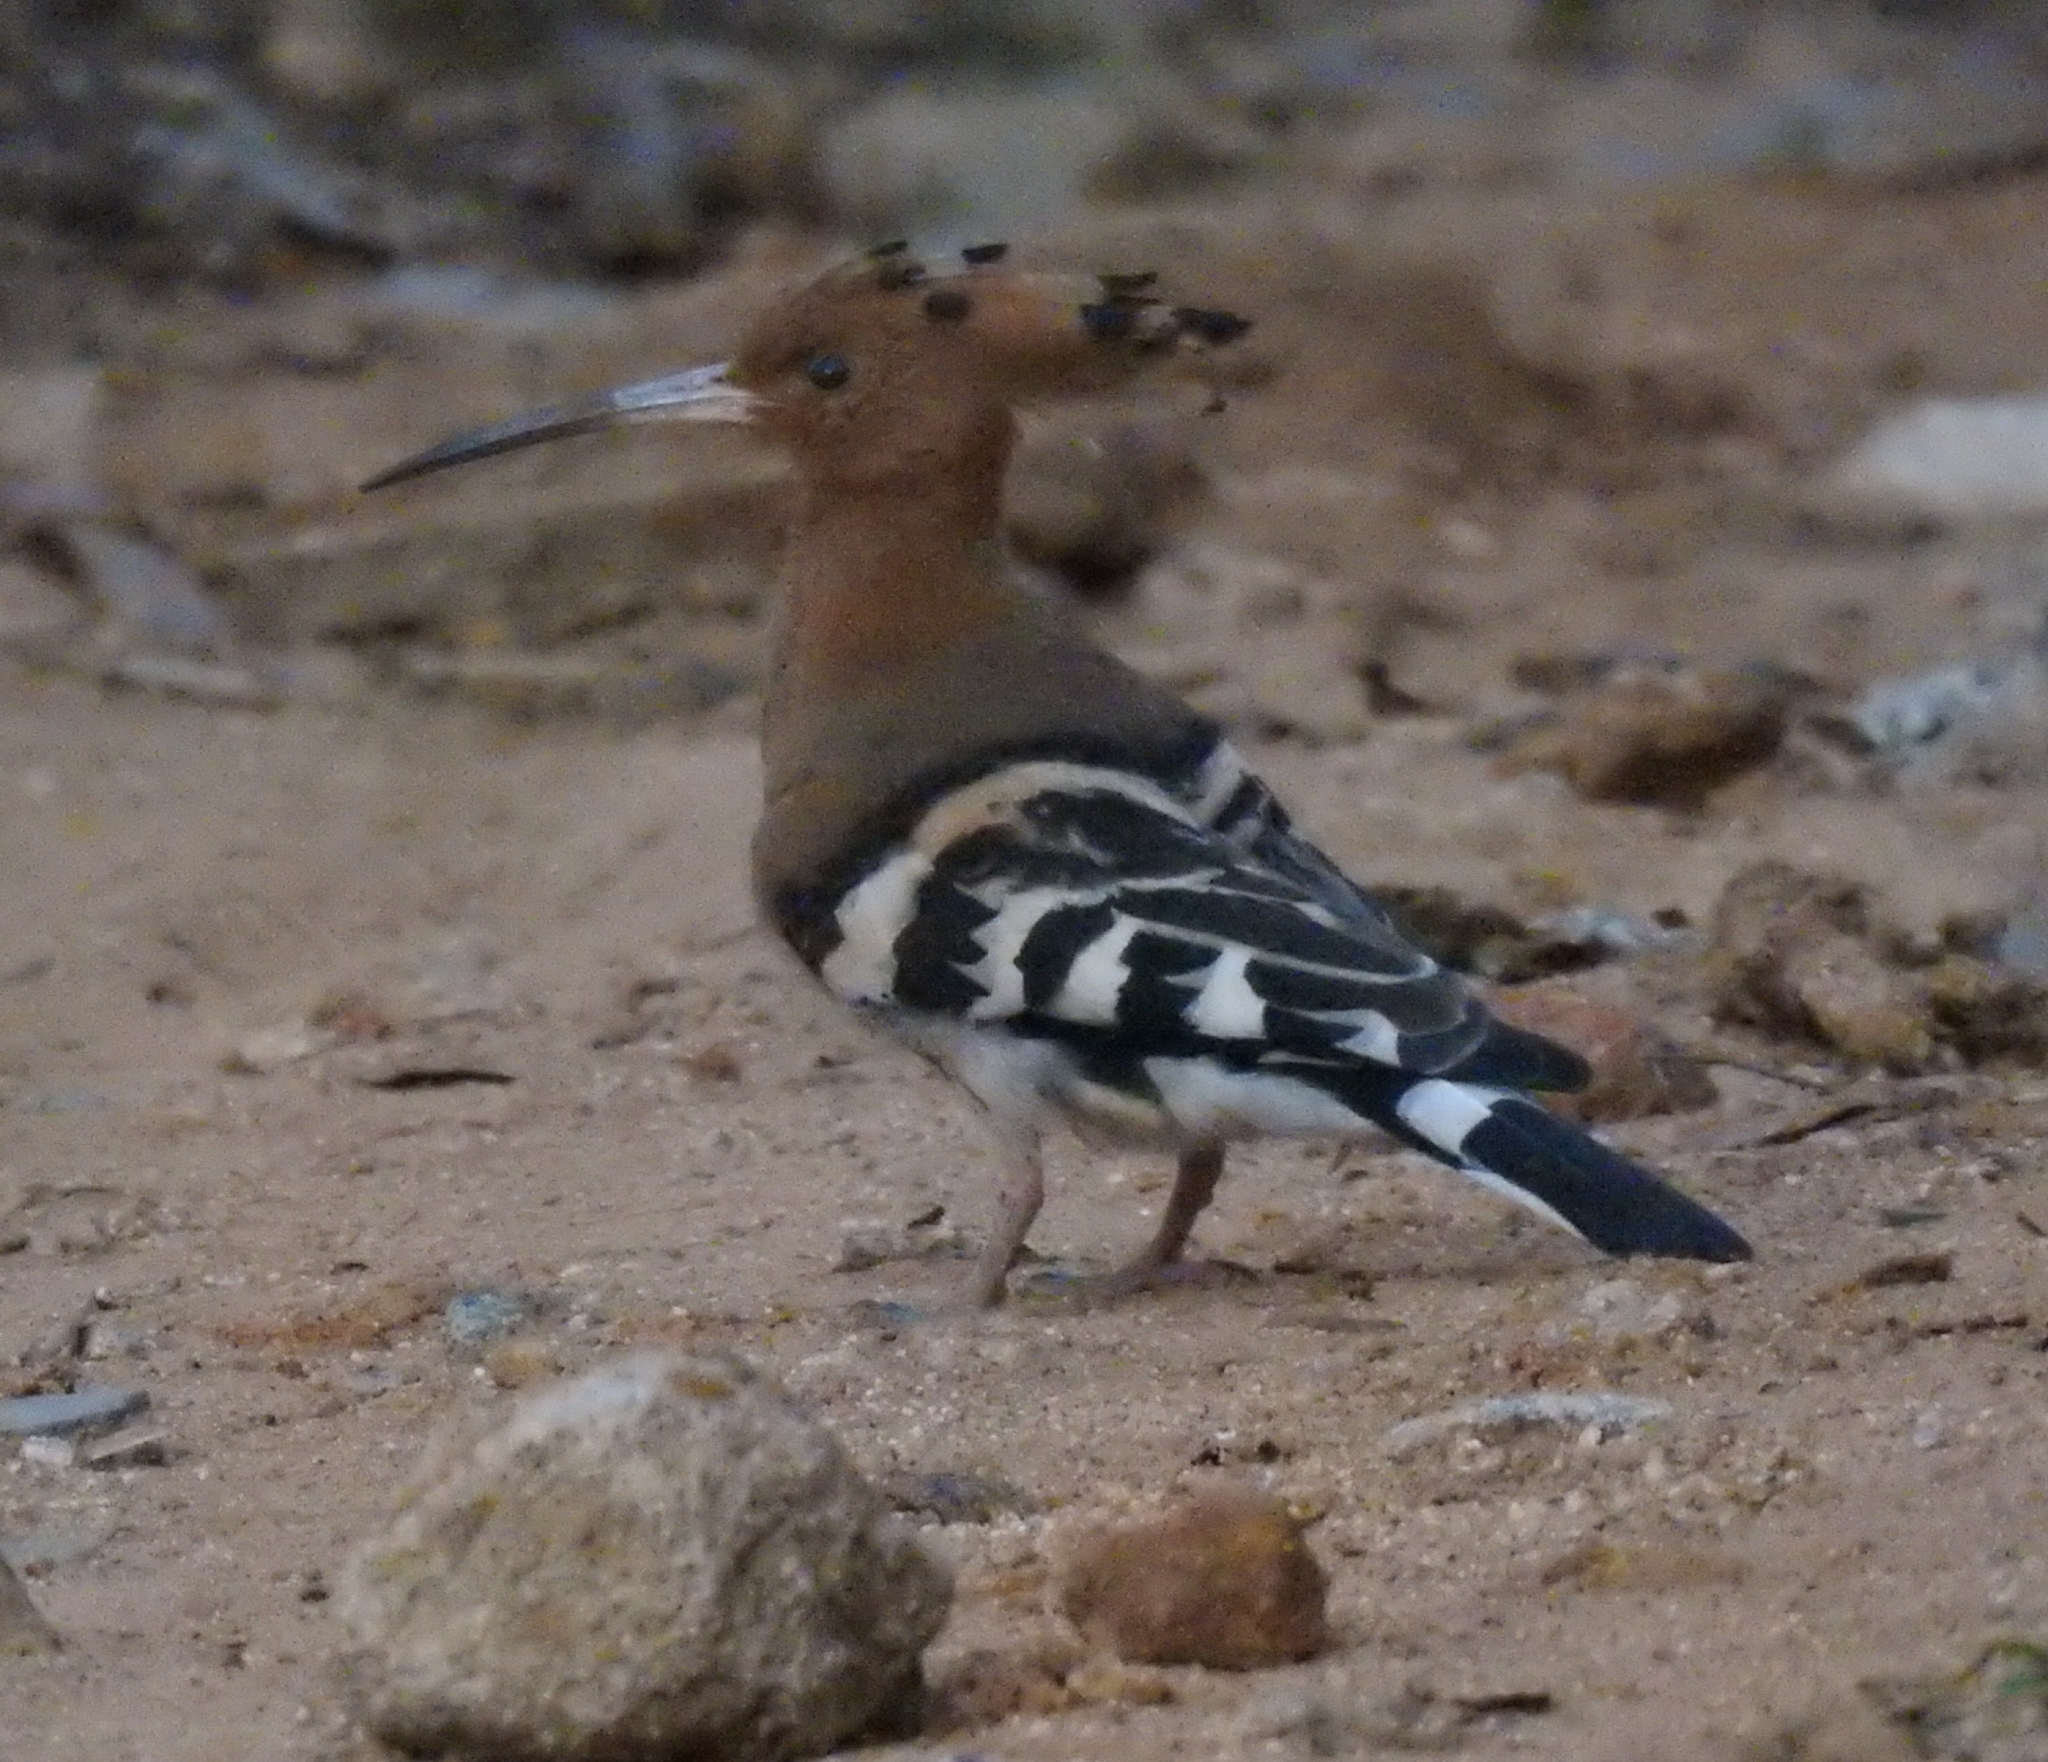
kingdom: Animalia
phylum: Chordata
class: Aves
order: Bucerotiformes
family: Upupidae
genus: Upupa
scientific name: Upupa epops
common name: Eurasian hoopoe
